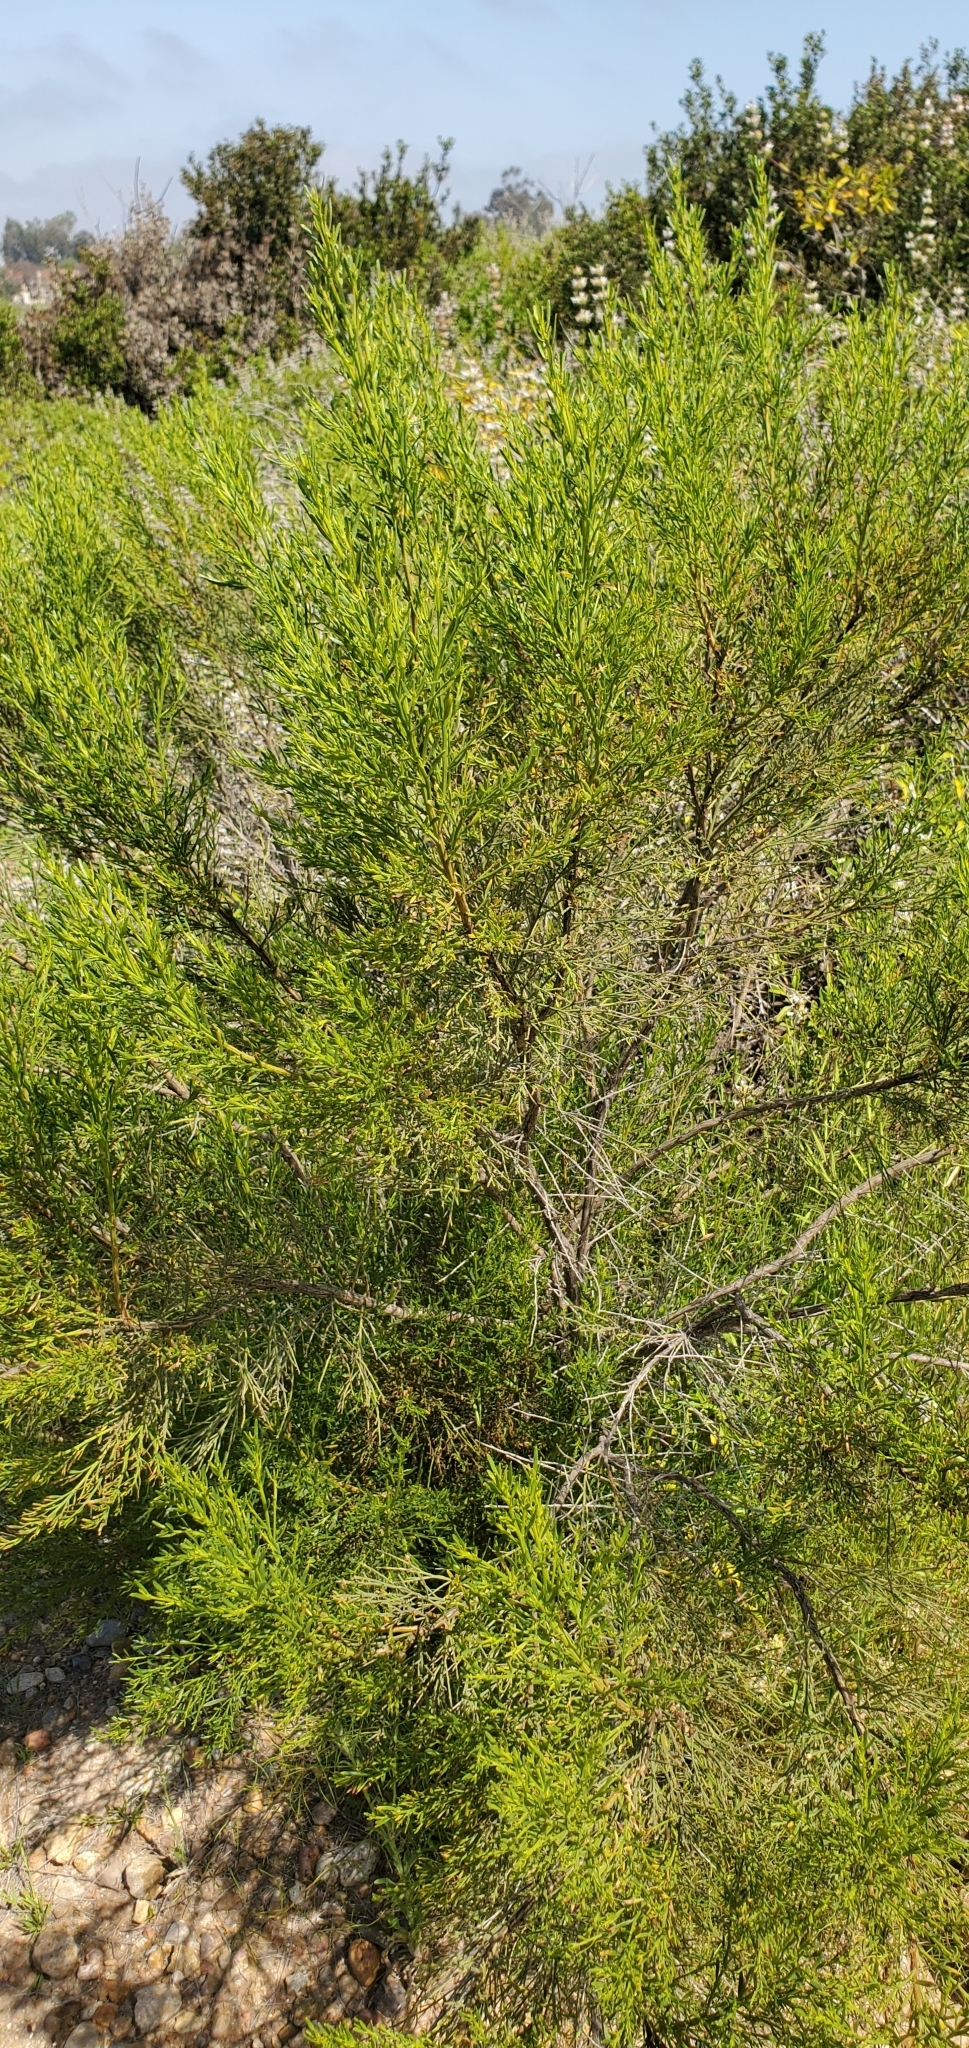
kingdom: Plantae
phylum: Tracheophyta
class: Magnoliopsida
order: Asterales
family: Asteraceae
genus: Baccharis
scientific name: Baccharis sarothroides
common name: Desert-broom
